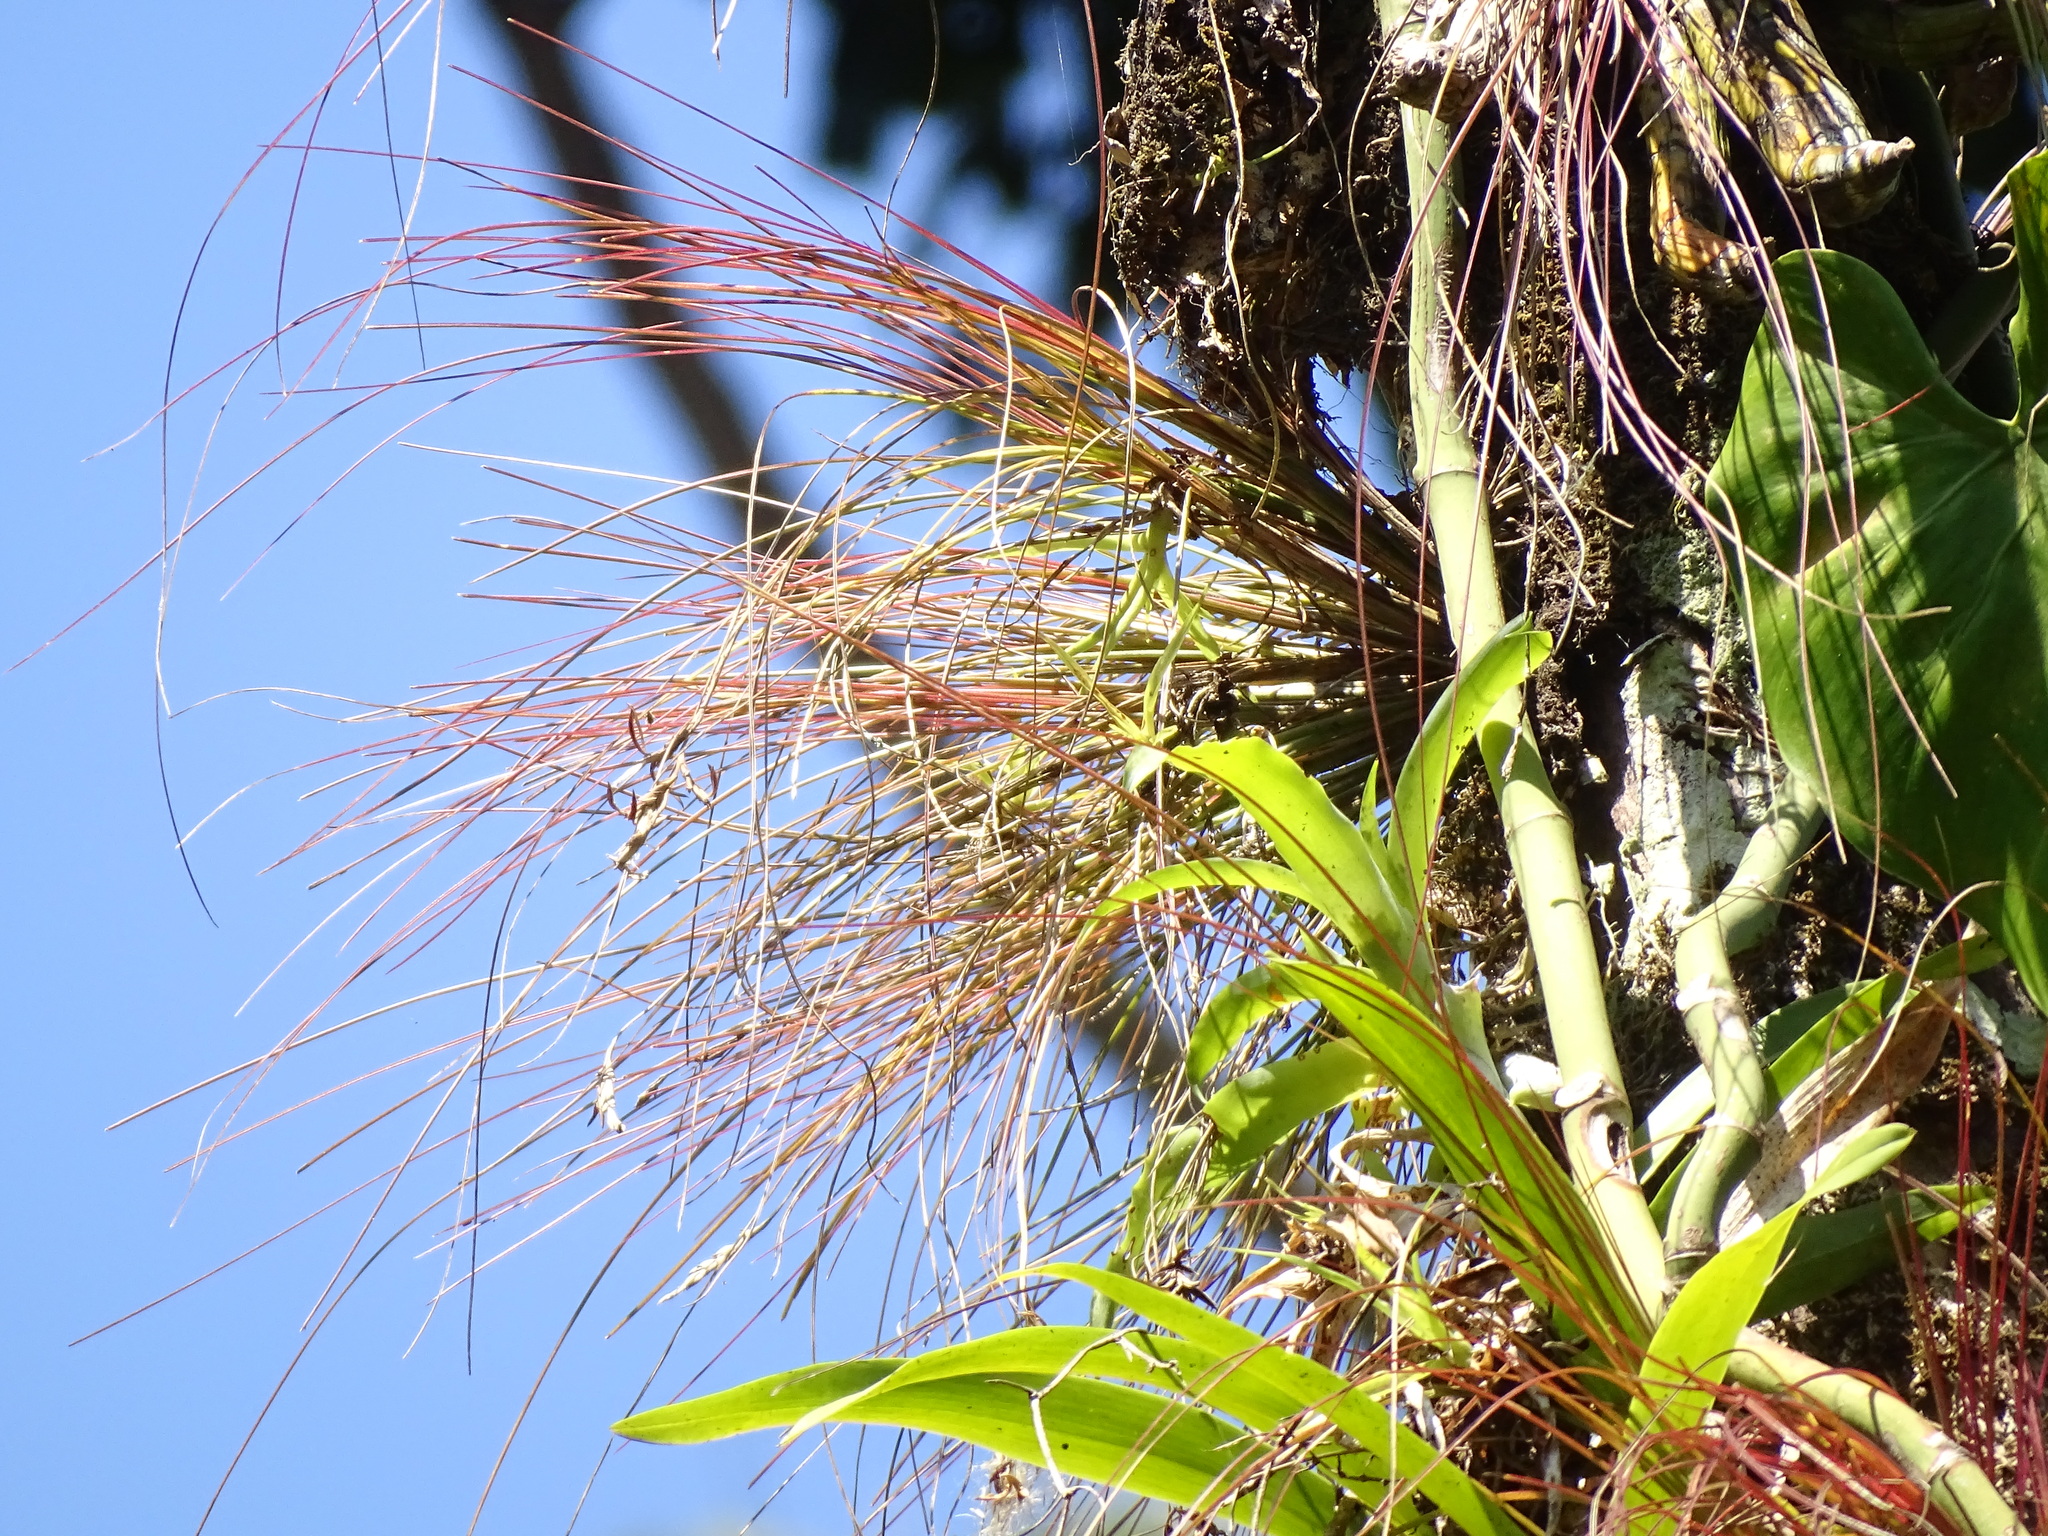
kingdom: Plantae
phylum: Tracheophyta
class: Liliopsida
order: Poales
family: Bromeliaceae
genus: Tillandsia
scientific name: Tillandsia eistetteri
